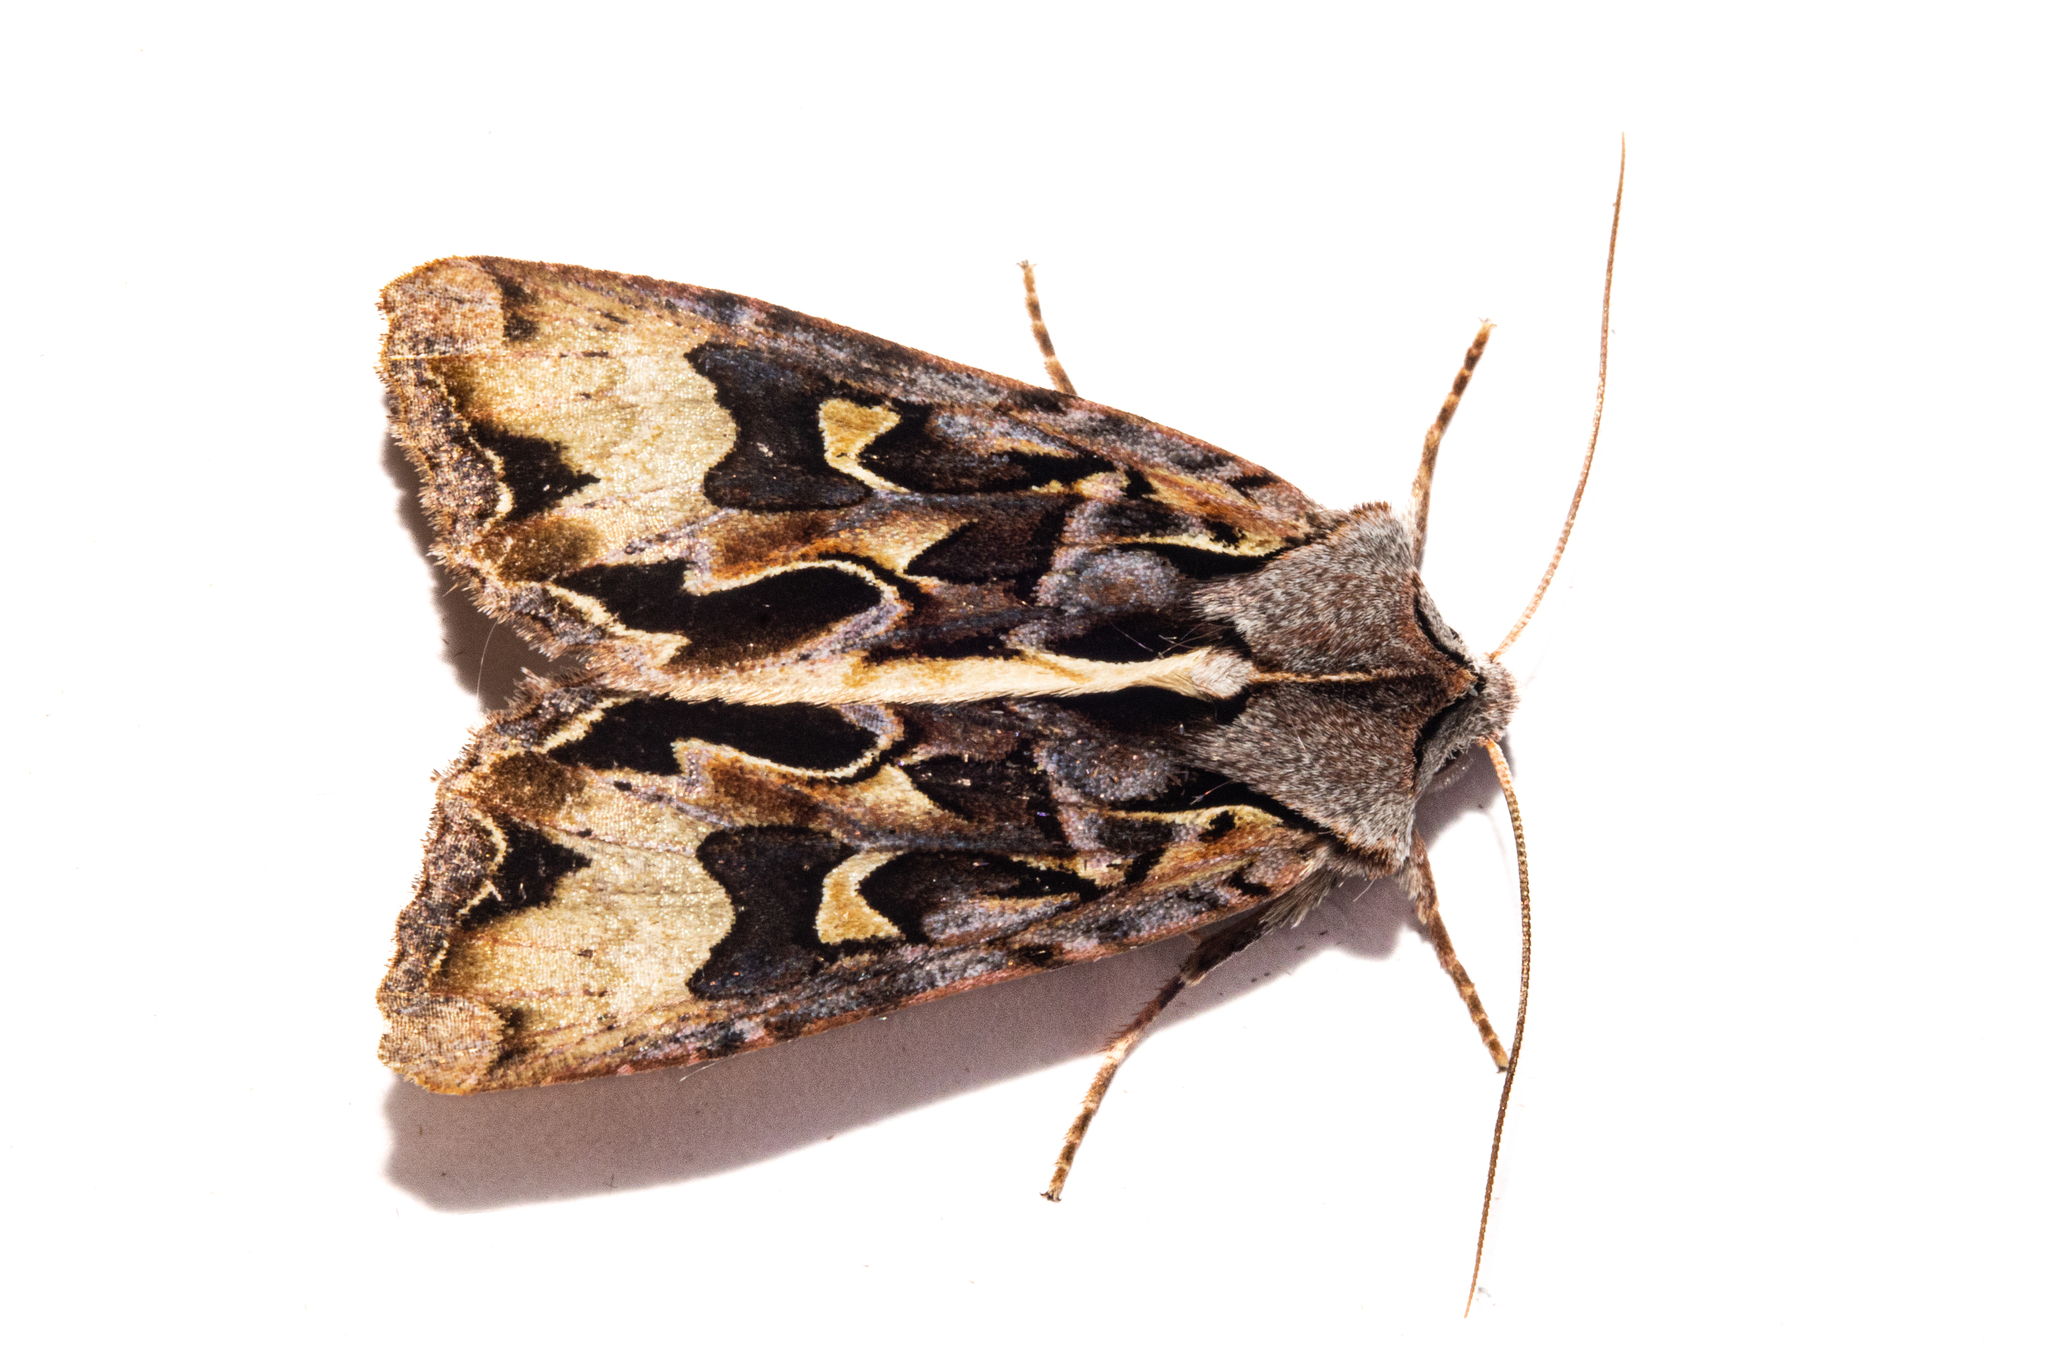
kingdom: Animalia
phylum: Arthropoda
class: Insecta
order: Lepidoptera
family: Noctuidae
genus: Ichneutica
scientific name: Ichneutica
